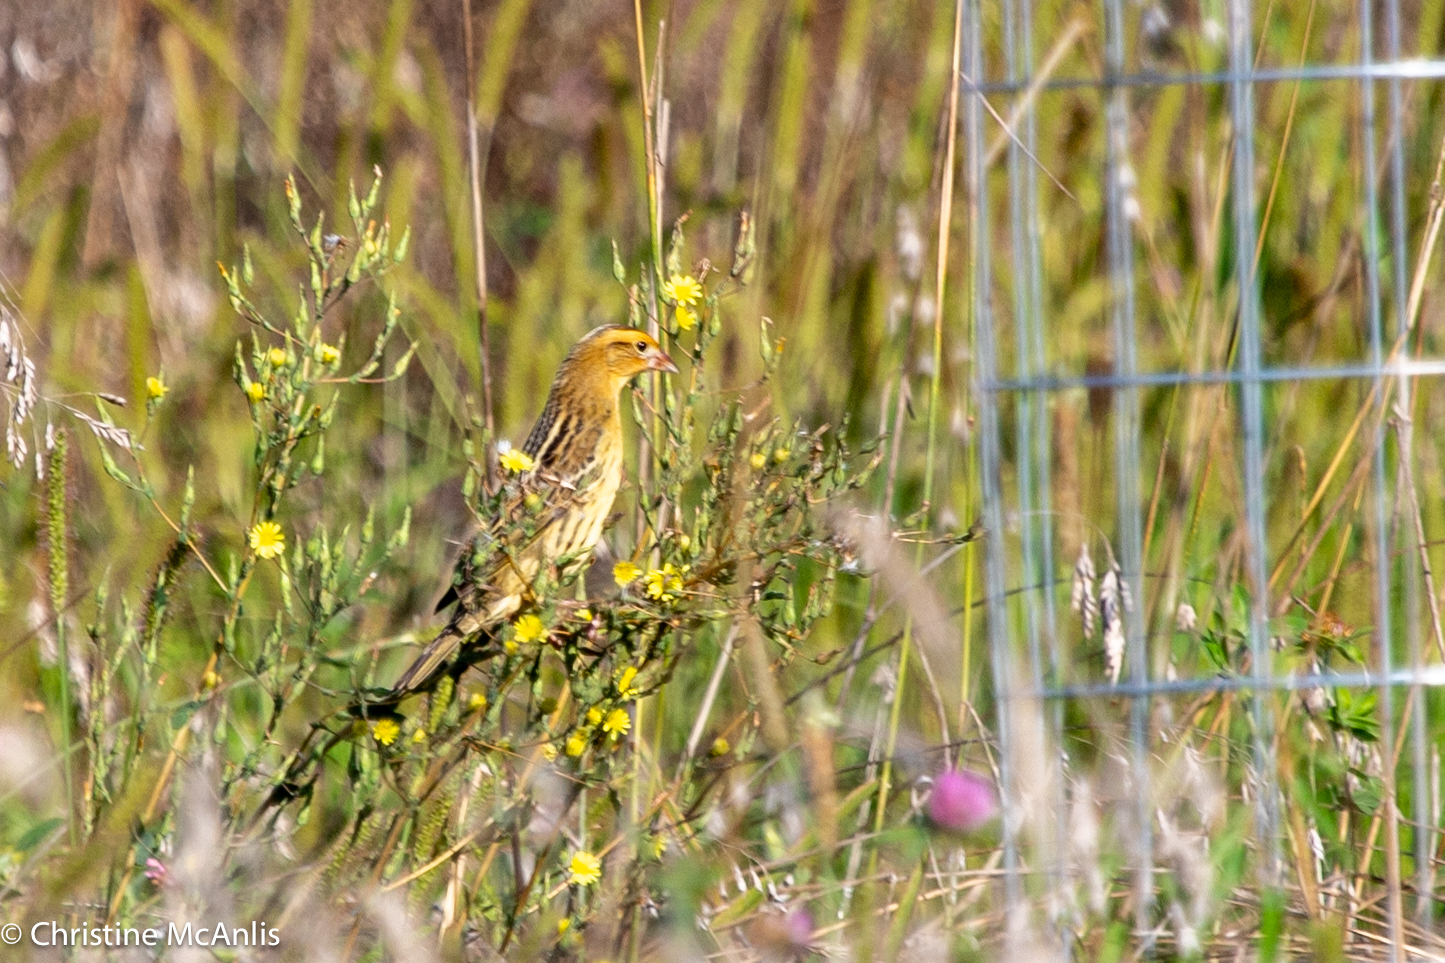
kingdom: Animalia
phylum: Chordata
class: Aves
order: Passeriformes
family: Icteridae
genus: Dolichonyx
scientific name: Dolichonyx oryzivorus
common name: Bobolink
